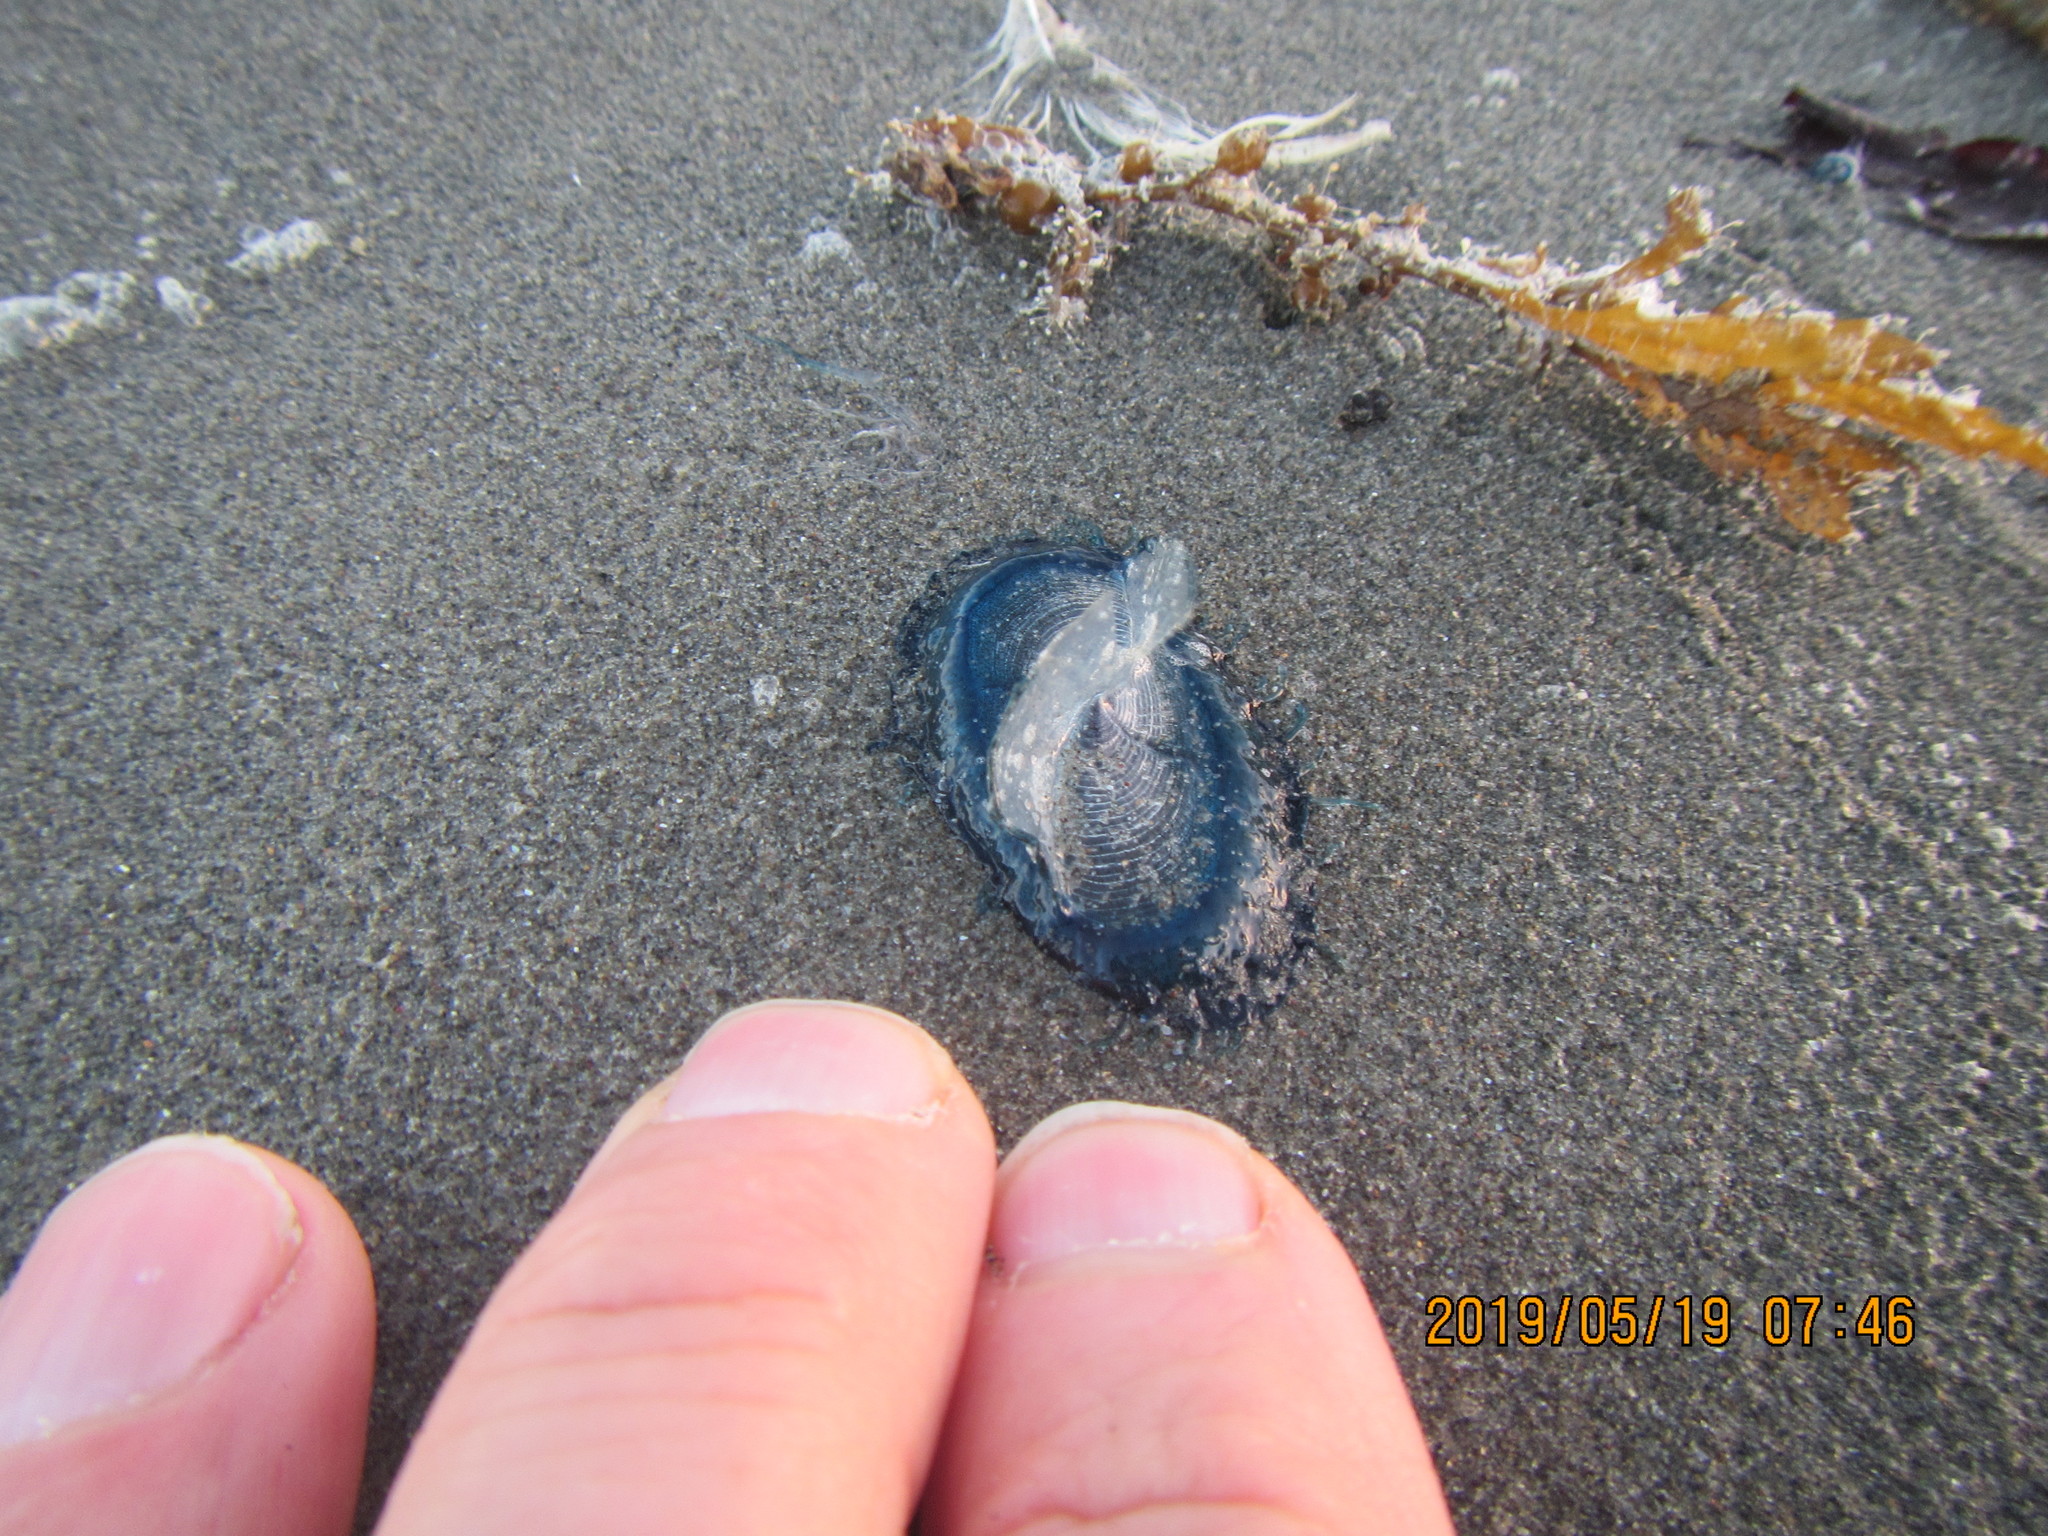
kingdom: Animalia
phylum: Cnidaria
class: Hydrozoa
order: Anthoathecata
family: Porpitidae
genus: Velella
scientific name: Velella velella
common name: By-the-wind-sailor
